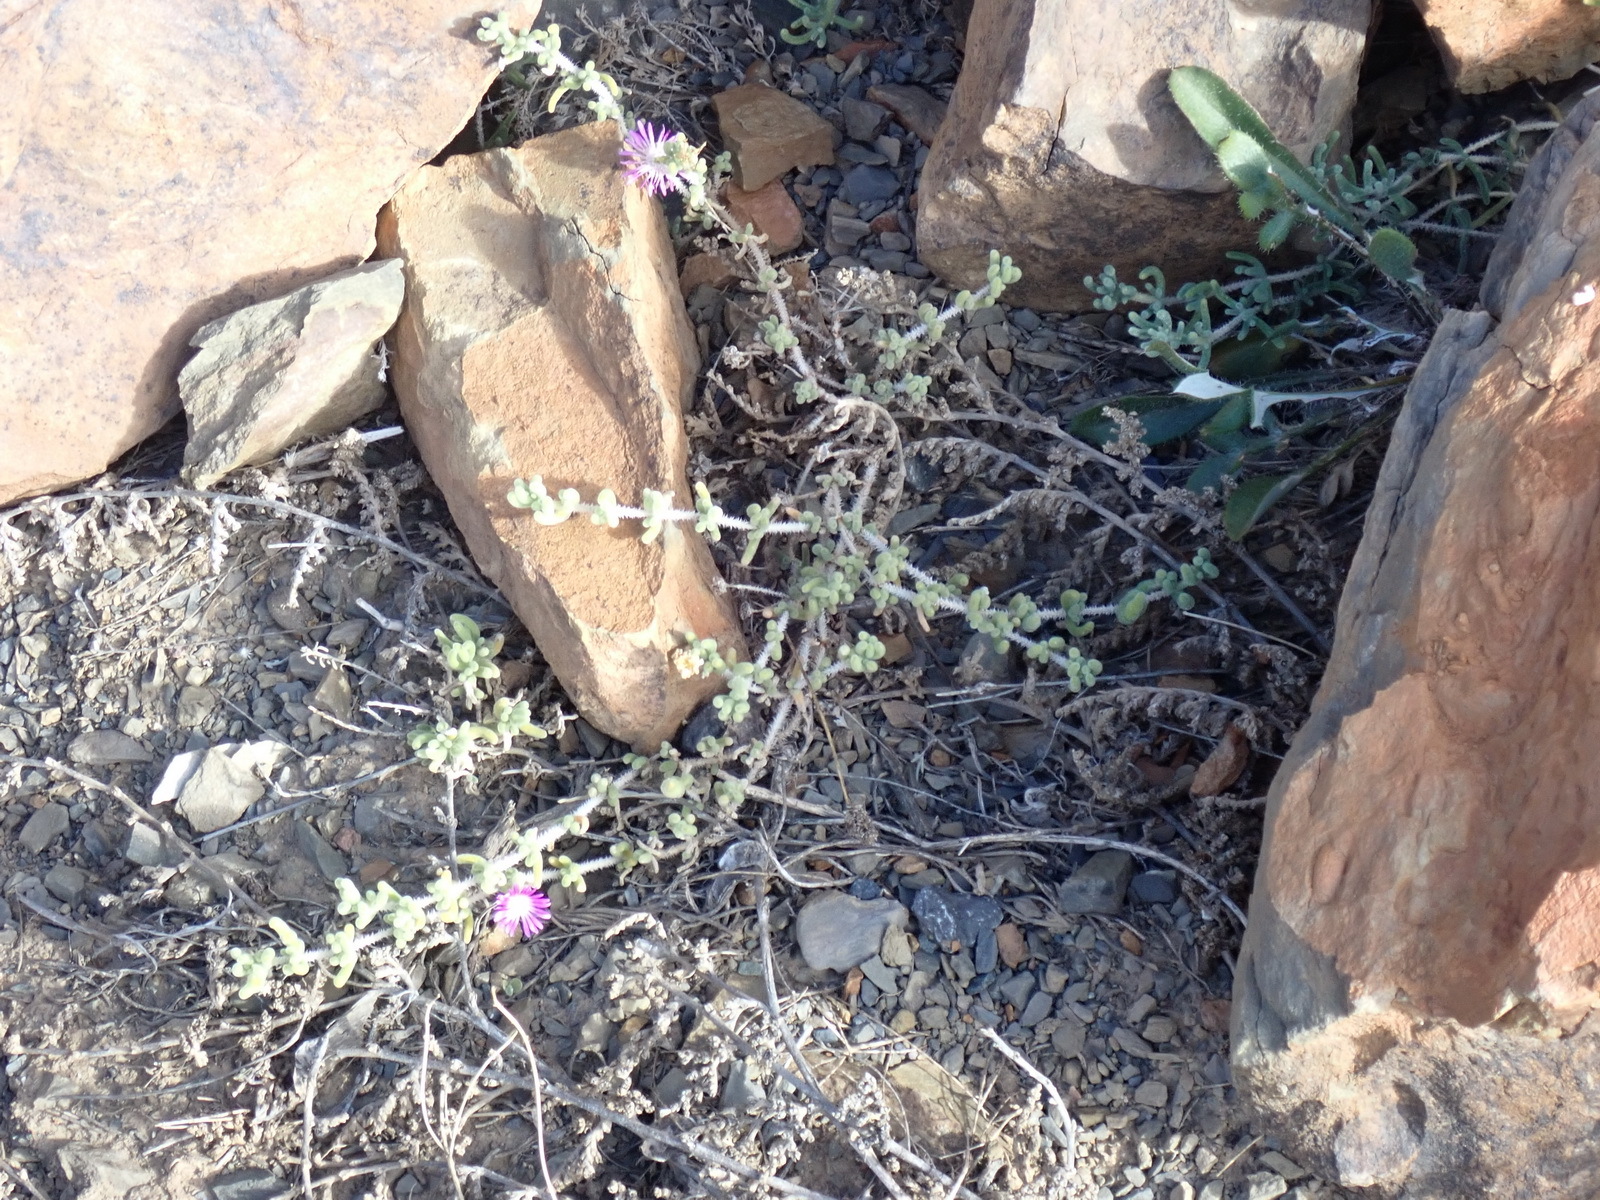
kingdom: Plantae
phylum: Tracheophyta
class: Magnoliopsida
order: Caryophyllales
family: Aizoaceae
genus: Drosanthemum
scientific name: Drosanthemum hispidum
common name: Hairy dewflower
